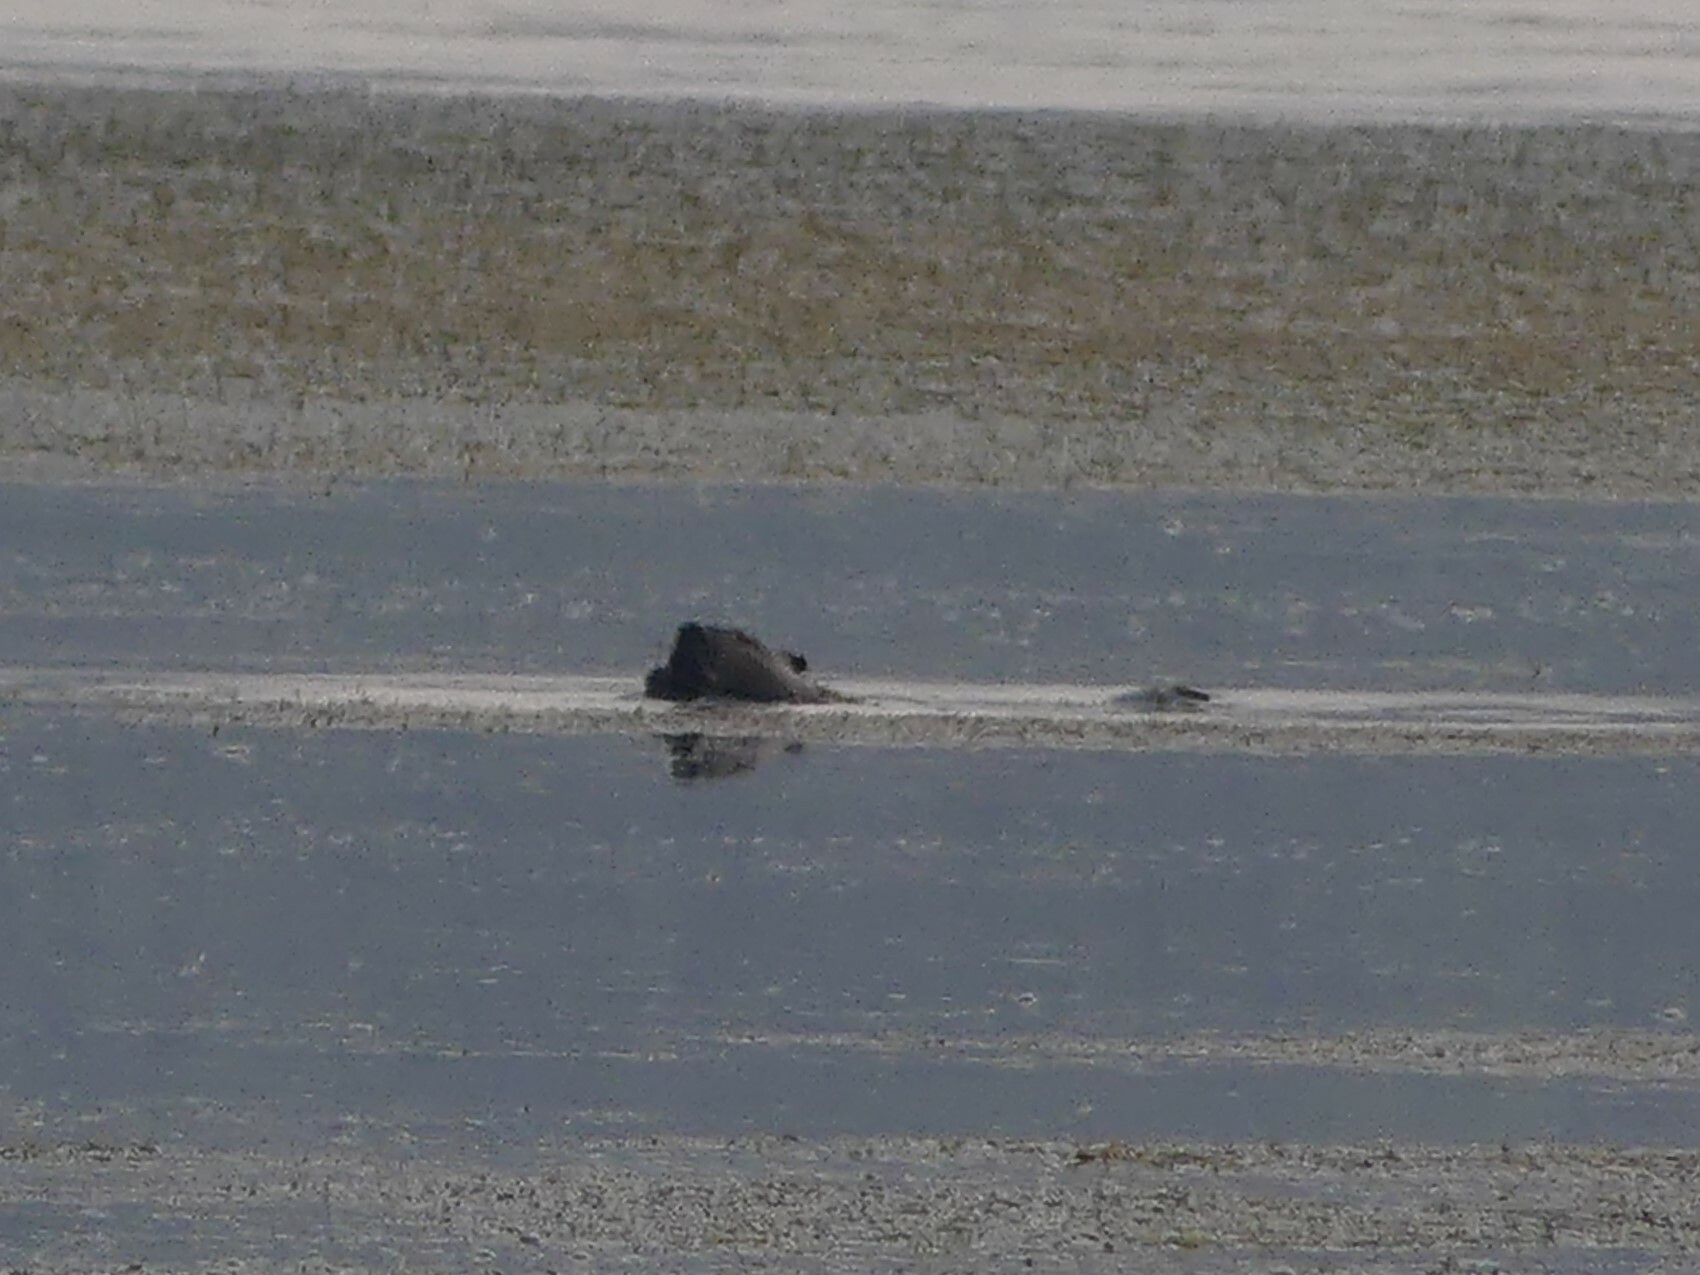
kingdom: Animalia
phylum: Chordata
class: Mammalia
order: Rodentia
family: Castoridae
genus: Castor
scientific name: Castor canadensis
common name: American beaver
